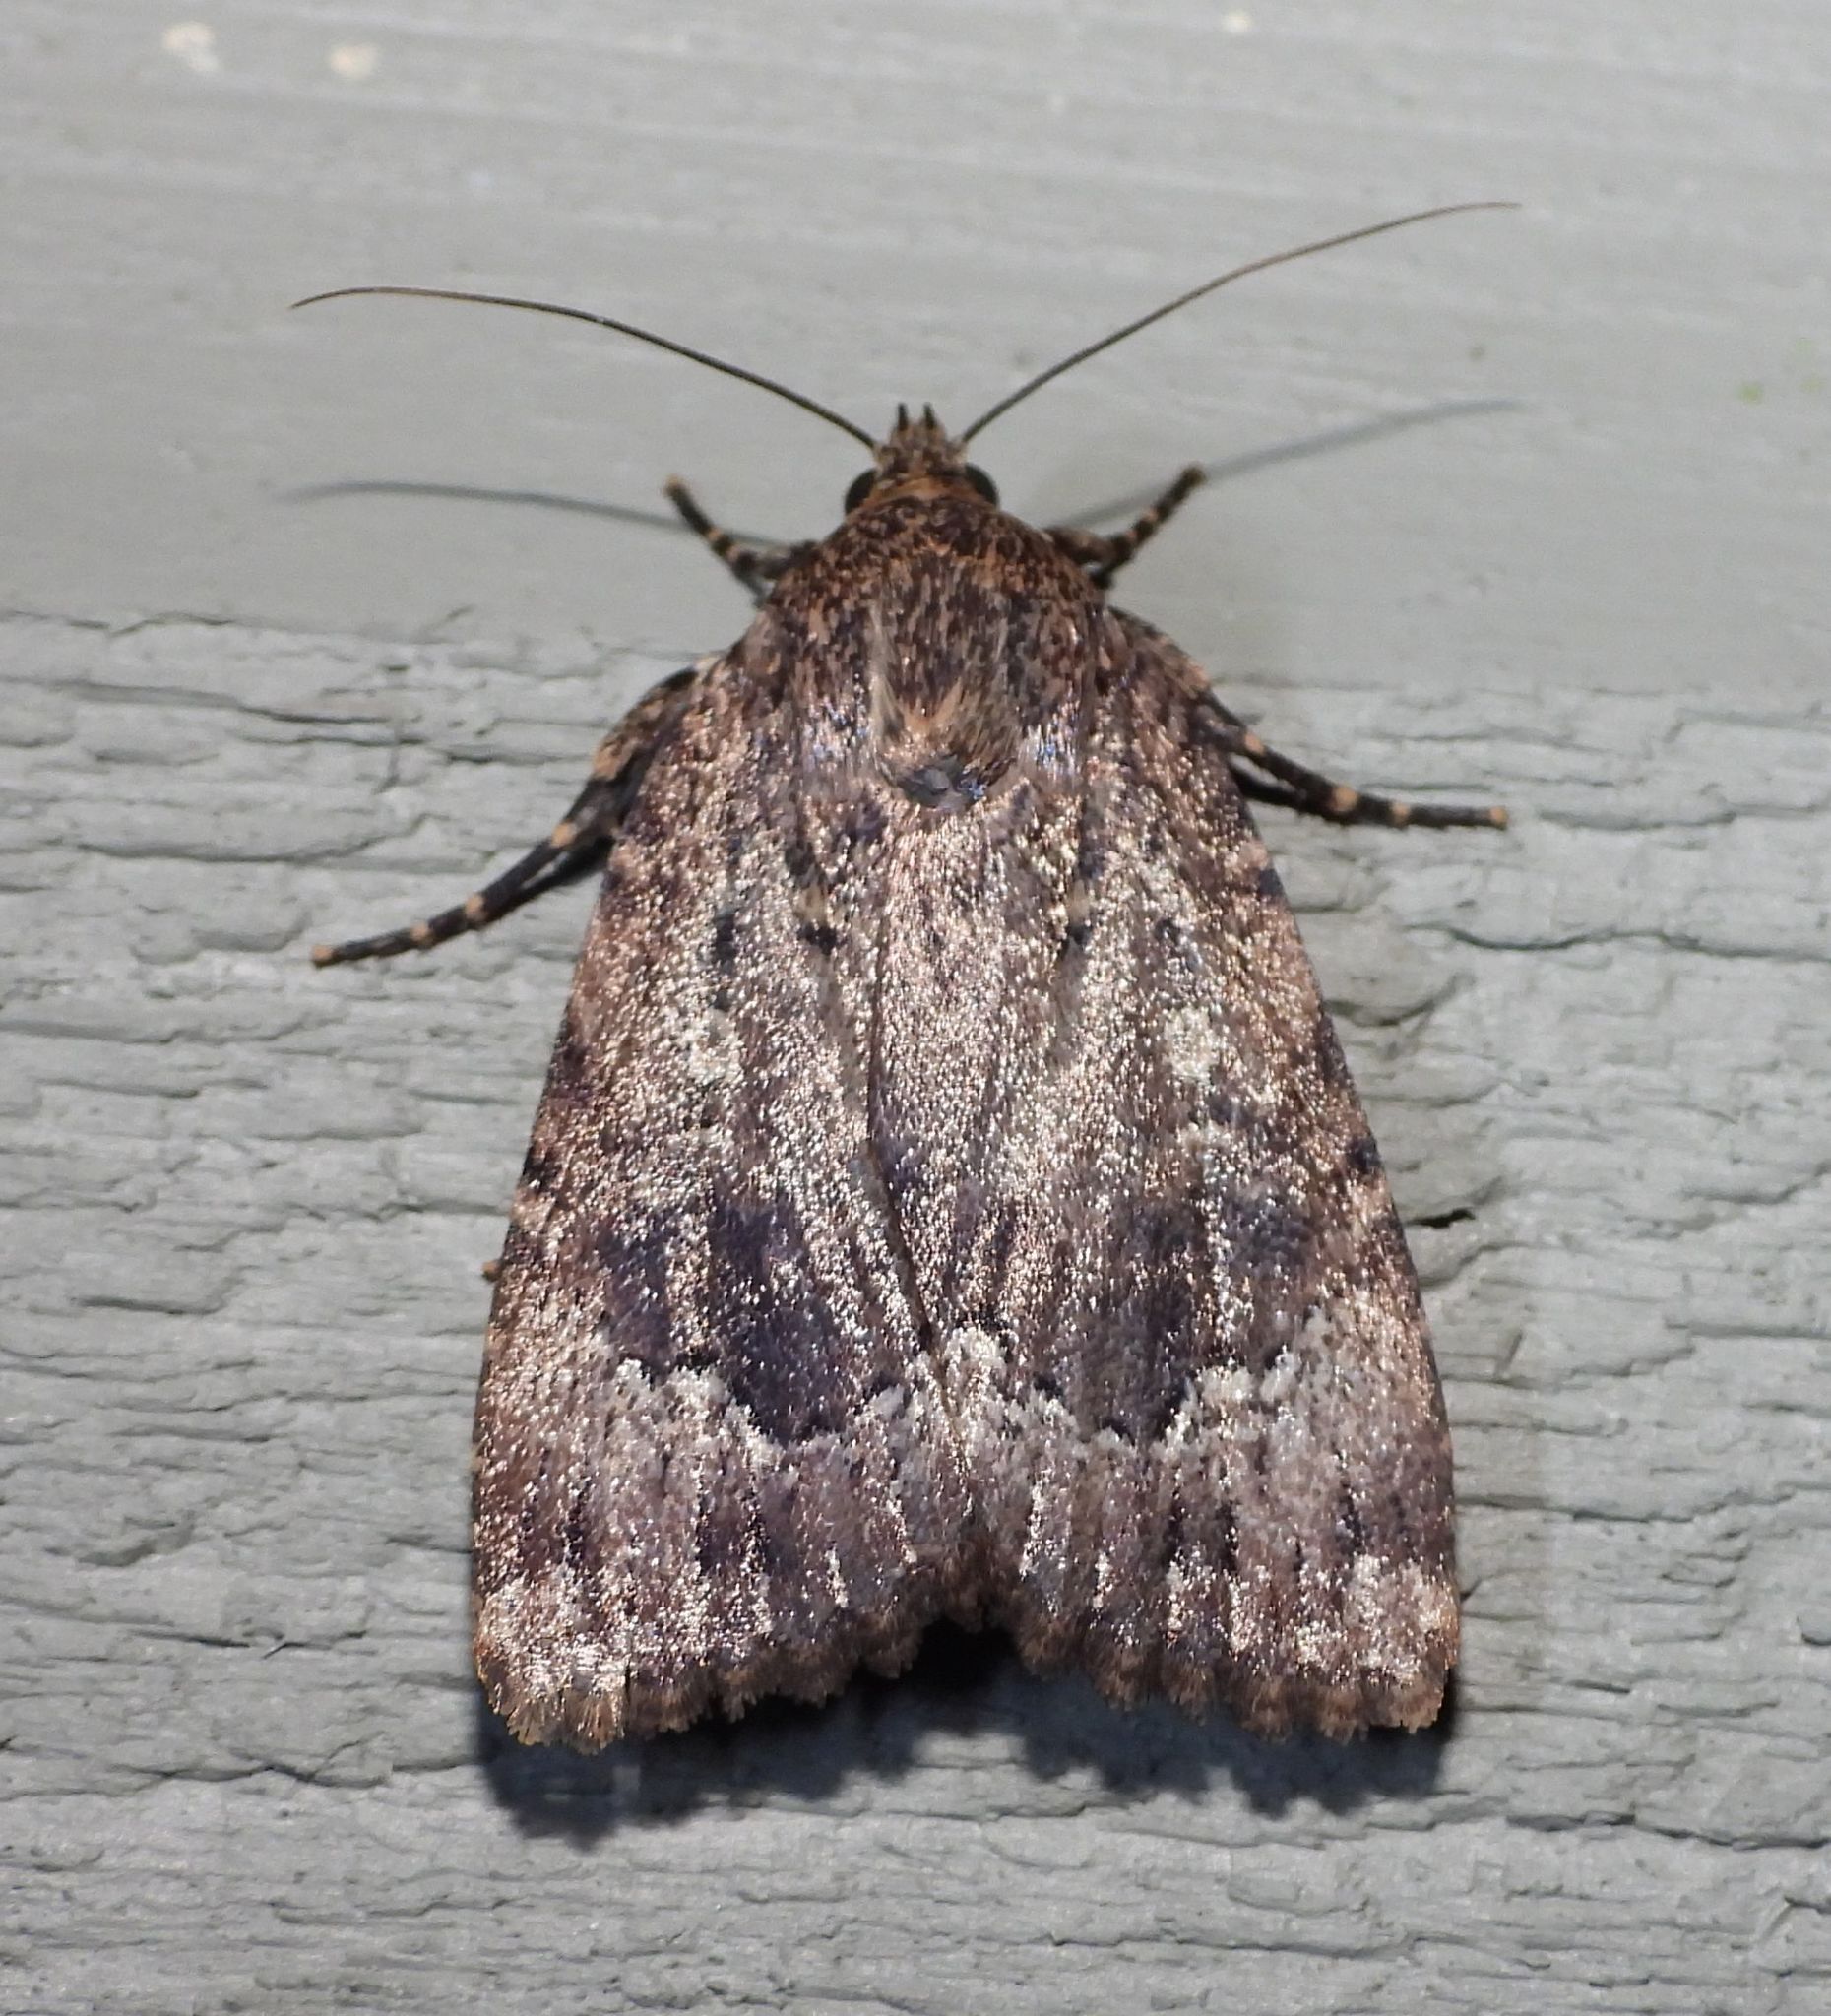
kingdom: Animalia
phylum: Arthropoda
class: Insecta
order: Lepidoptera
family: Noctuidae
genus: Amphipyra
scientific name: Amphipyra pyramidoides
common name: American copper underwing
